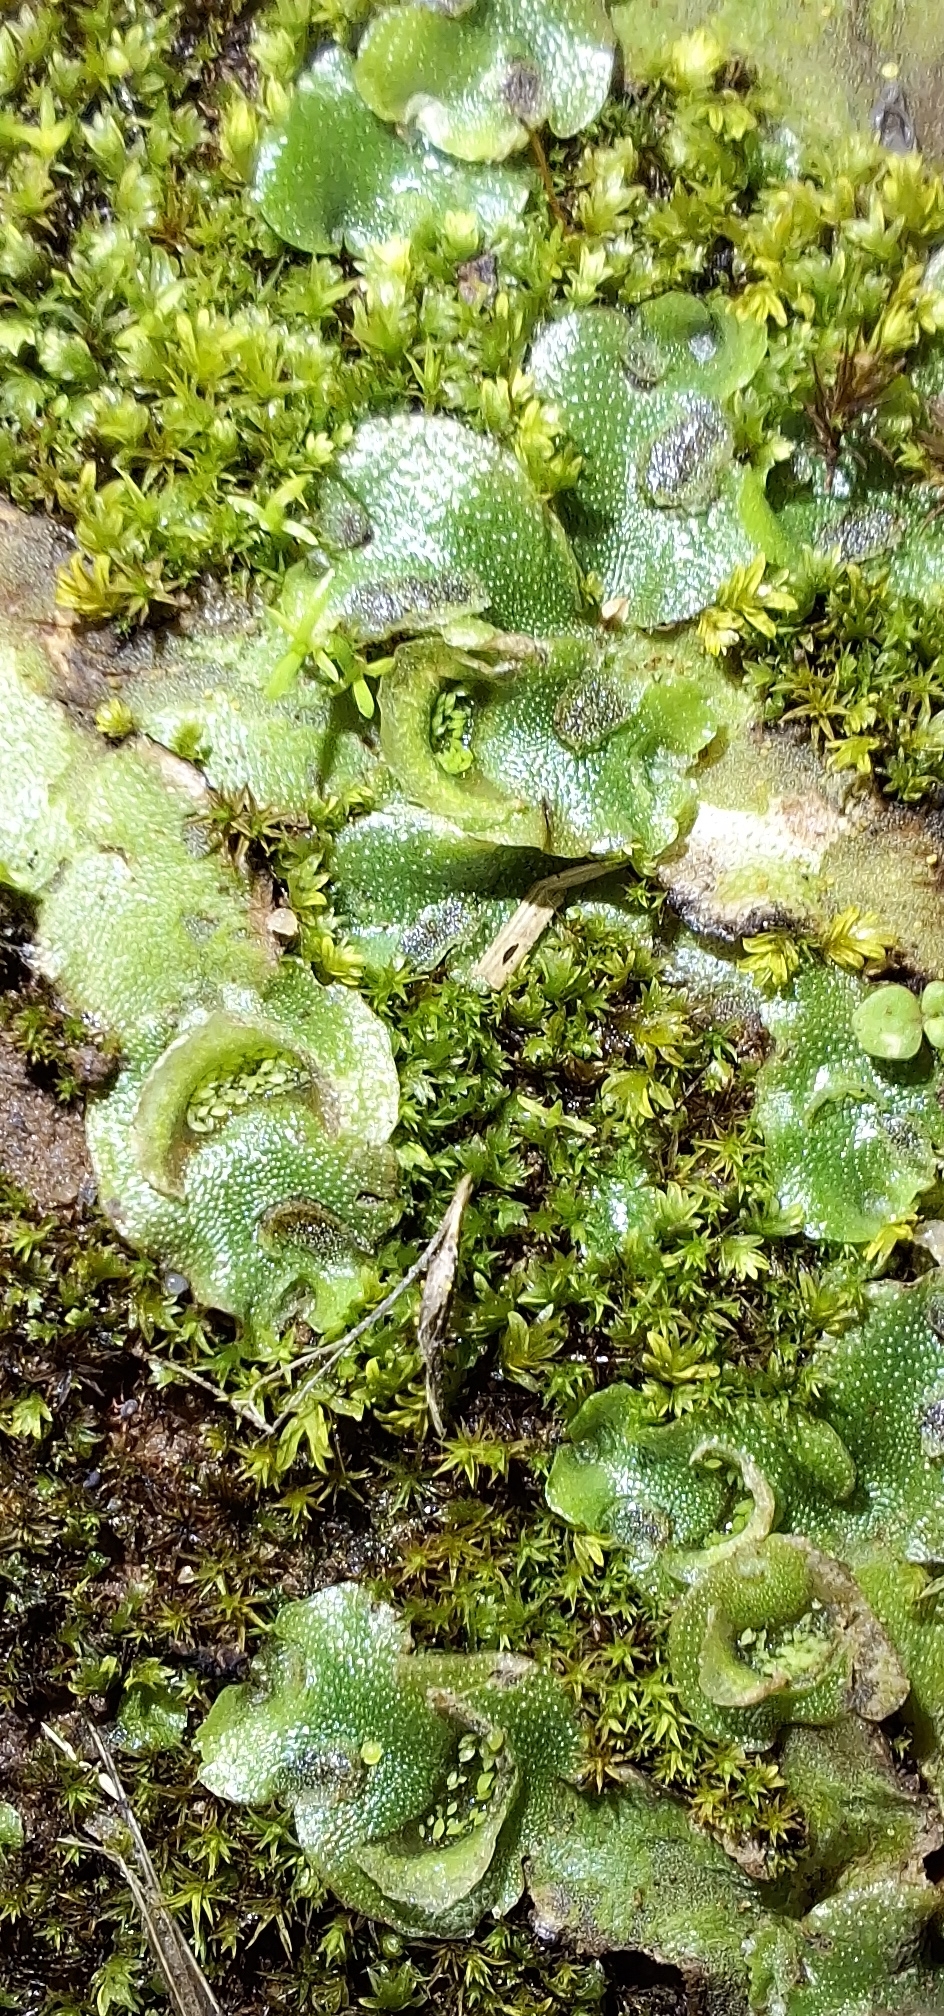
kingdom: Plantae
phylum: Marchantiophyta
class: Marchantiopsida
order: Lunulariales
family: Lunulariaceae
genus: Lunularia
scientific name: Lunularia cruciata
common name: Crescent-cup liverwort
